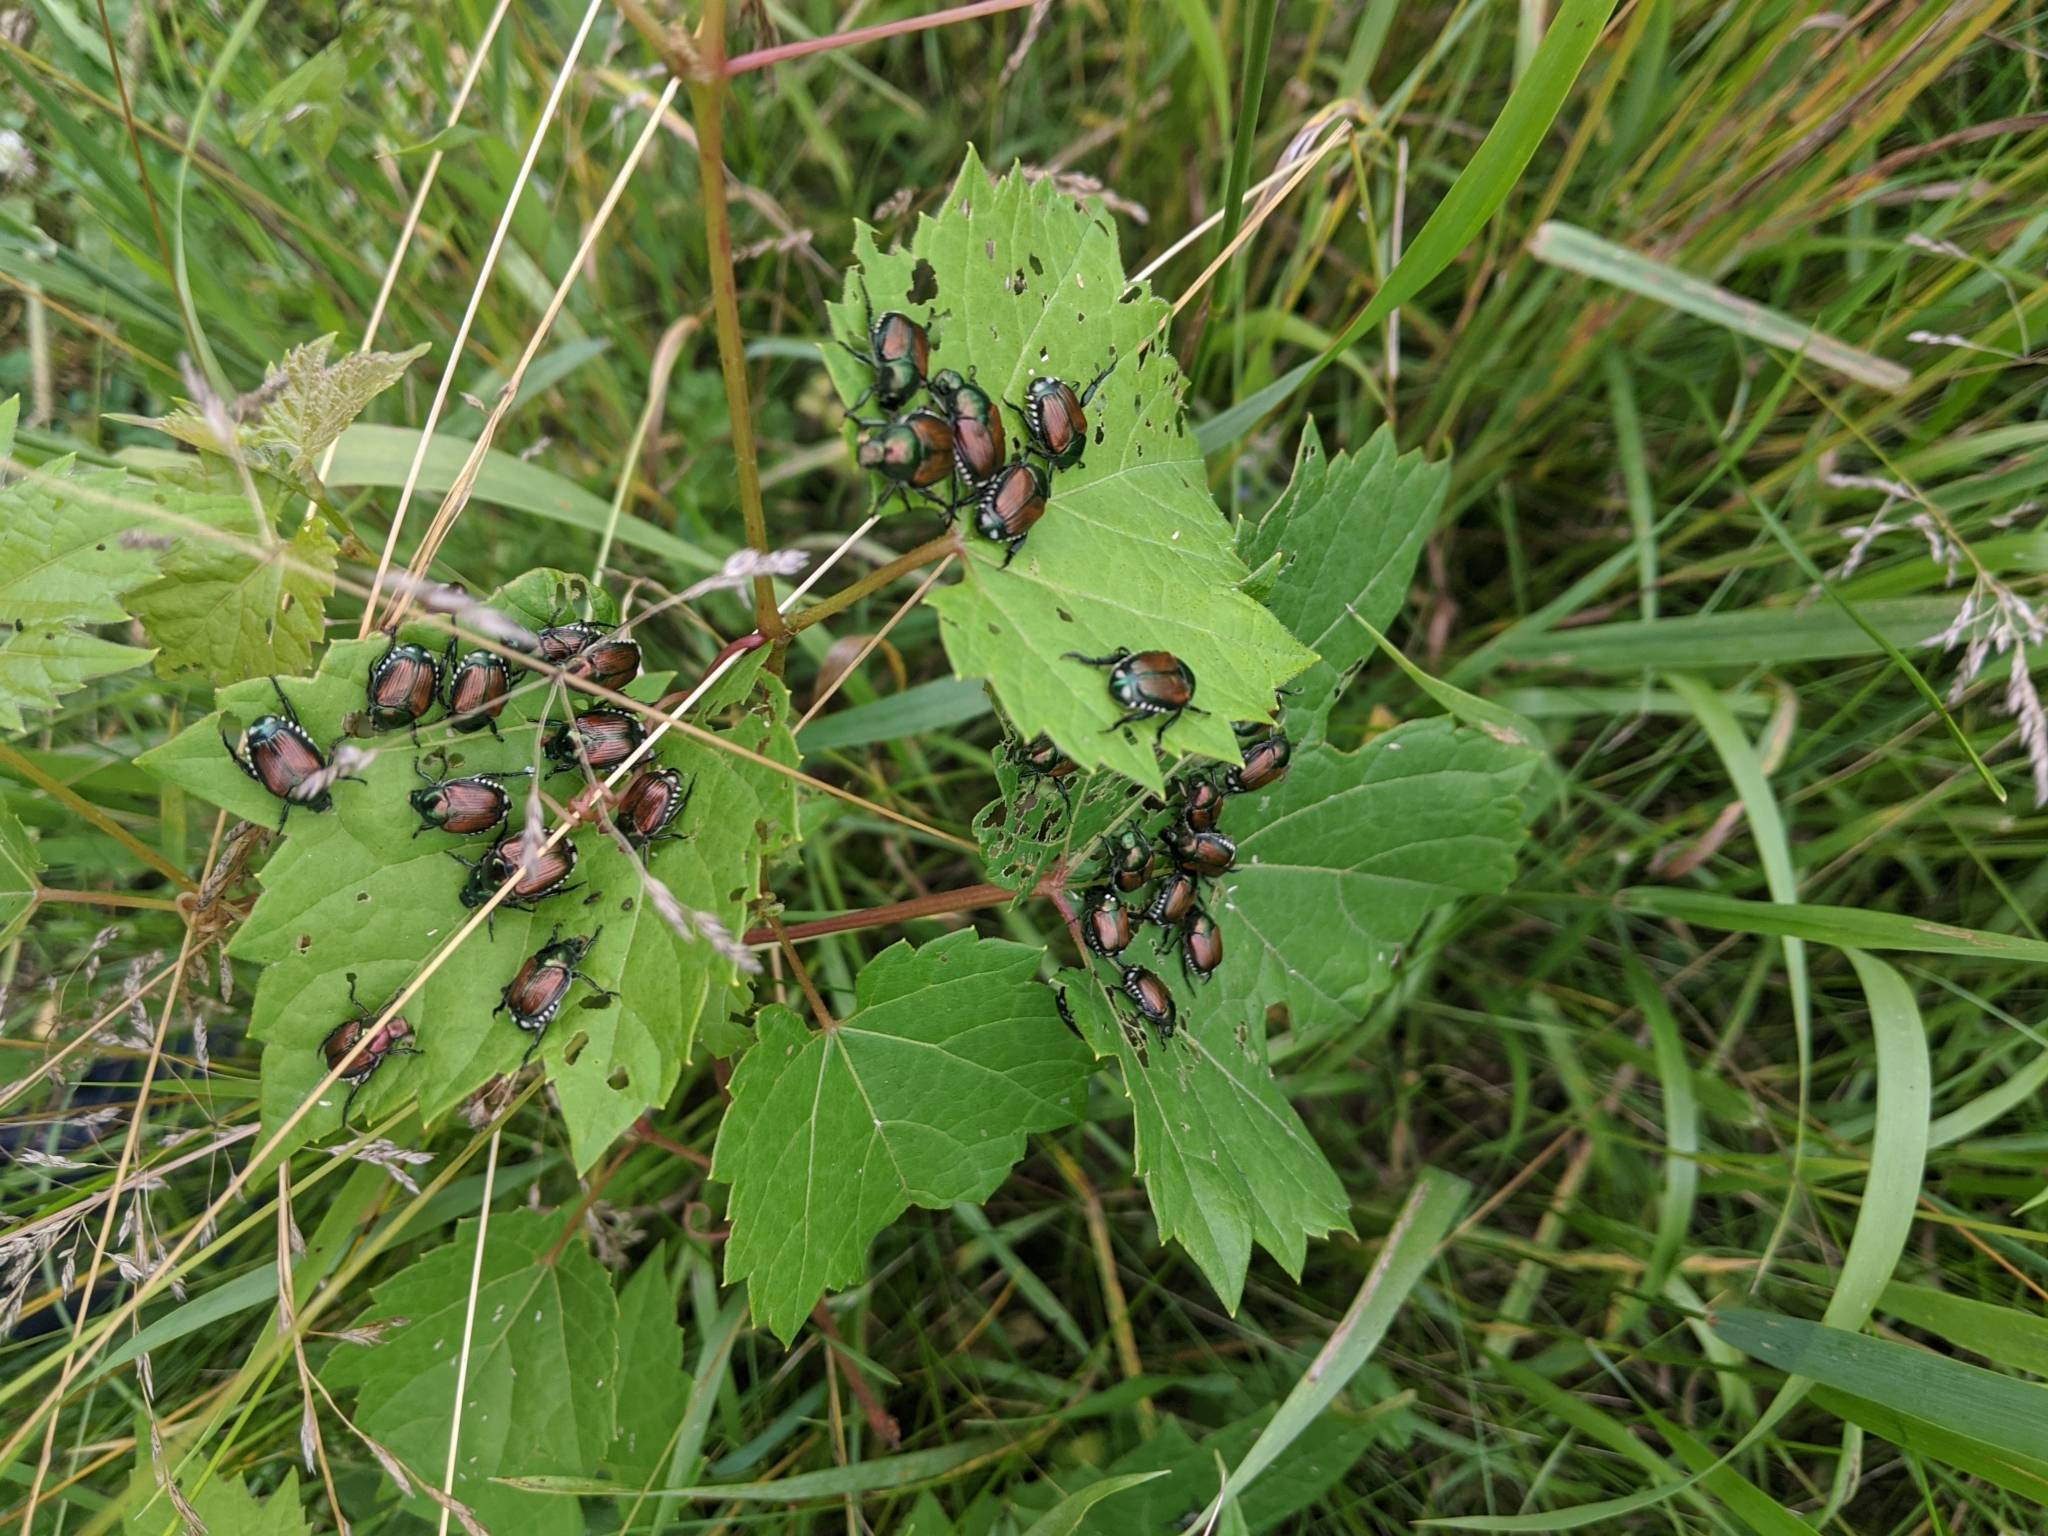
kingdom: Animalia
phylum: Arthropoda
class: Insecta
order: Coleoptera
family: Scarabaeidae
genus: Popillia
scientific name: Popillia japonica
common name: Japanese beetle
